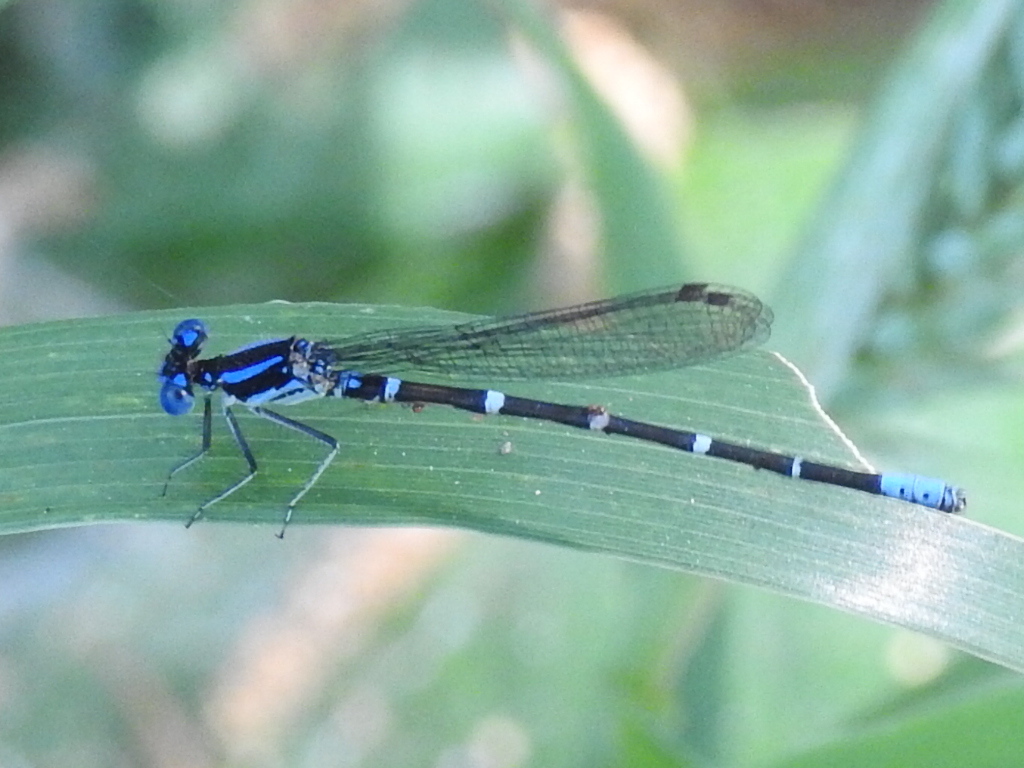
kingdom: Animalia
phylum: Arthropoda
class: Insecta
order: Odonata
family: Coenagrionidae
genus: Argia
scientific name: Argia sedula
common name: Blue-ringed dancer
